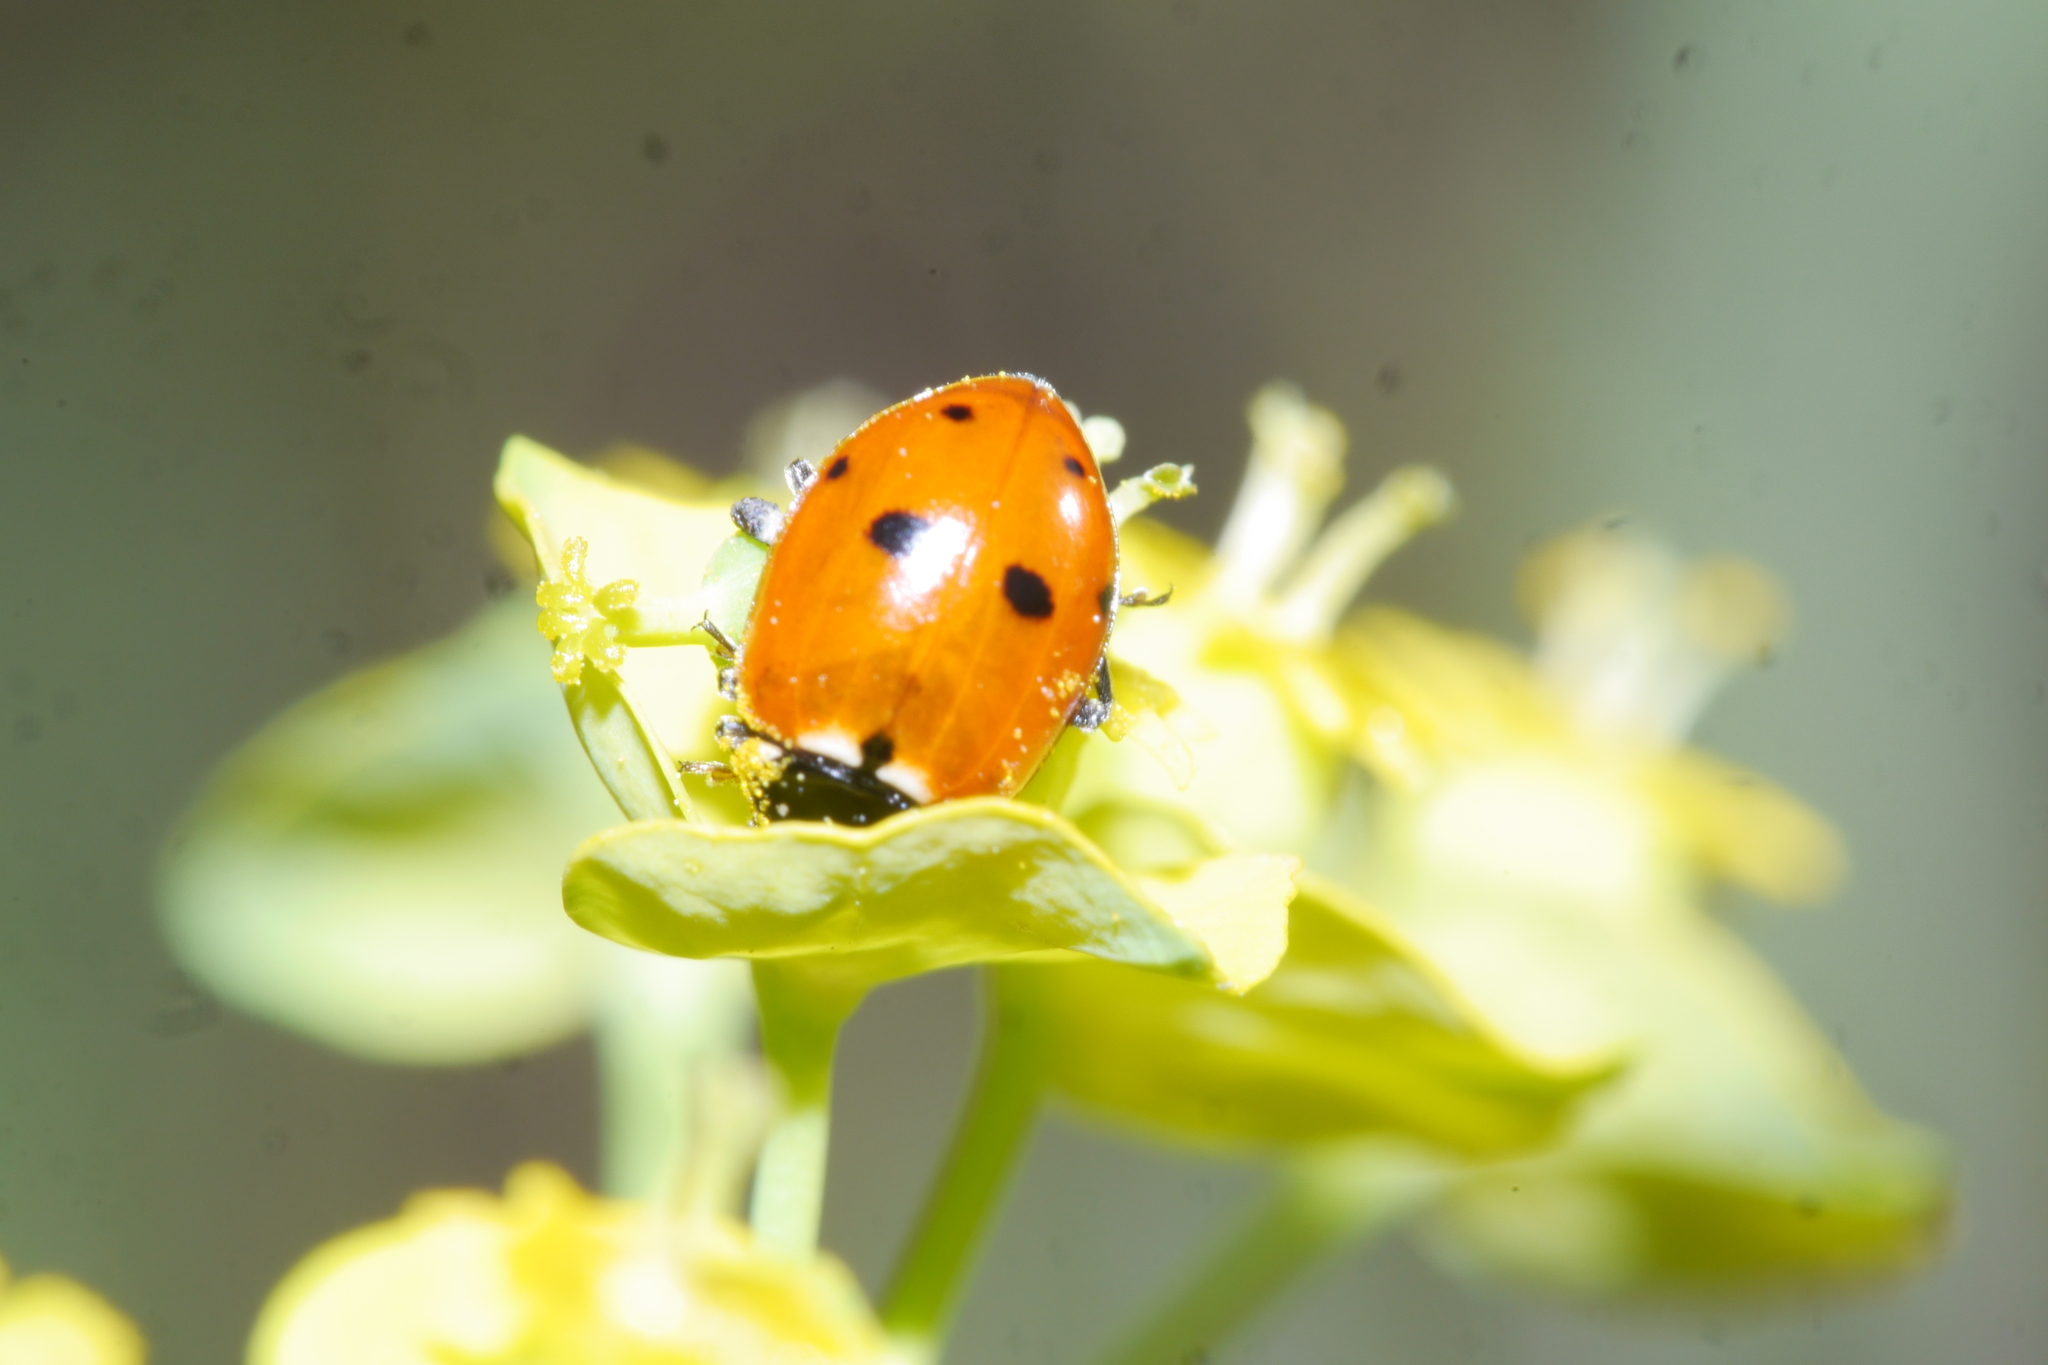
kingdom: Animalia
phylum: Arthropoda
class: Insecta
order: Coleoptera
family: Coccinellidae
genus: Hippodamia
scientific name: Hippodamia variegata
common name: Ladybird beetle
